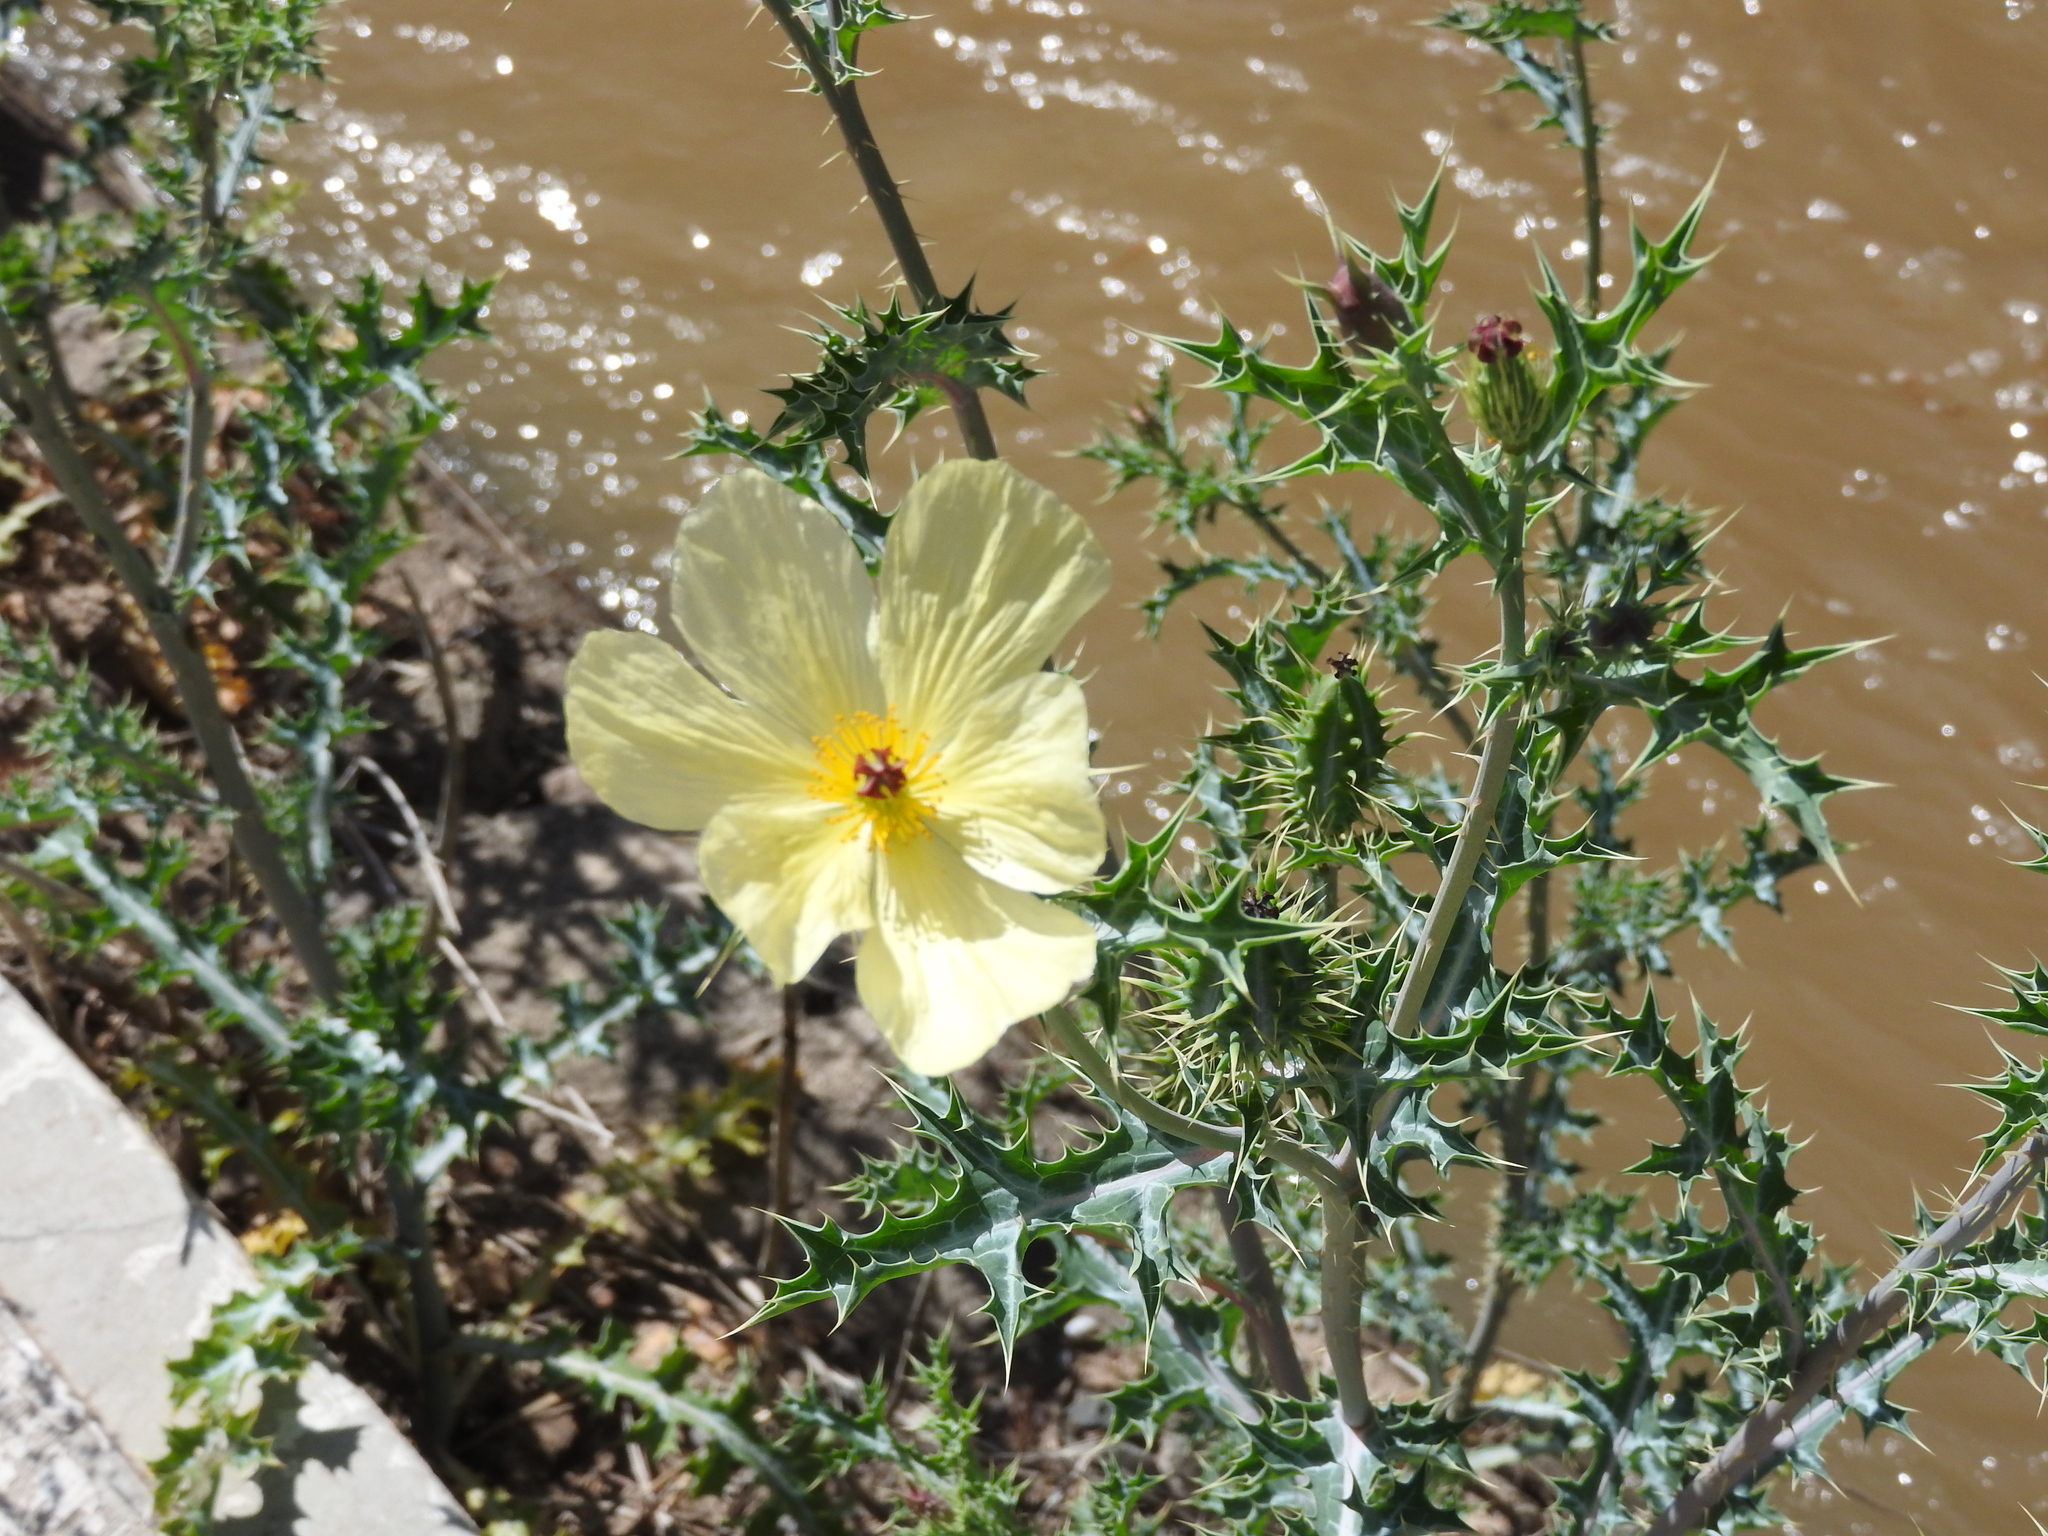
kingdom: Plantae
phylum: Tracheophyta
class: Magnoliopsida
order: Ranunculales
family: Papaveraceae
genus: Argemone
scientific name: Argemone ochroleuca
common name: White-flower mexican-poppy
